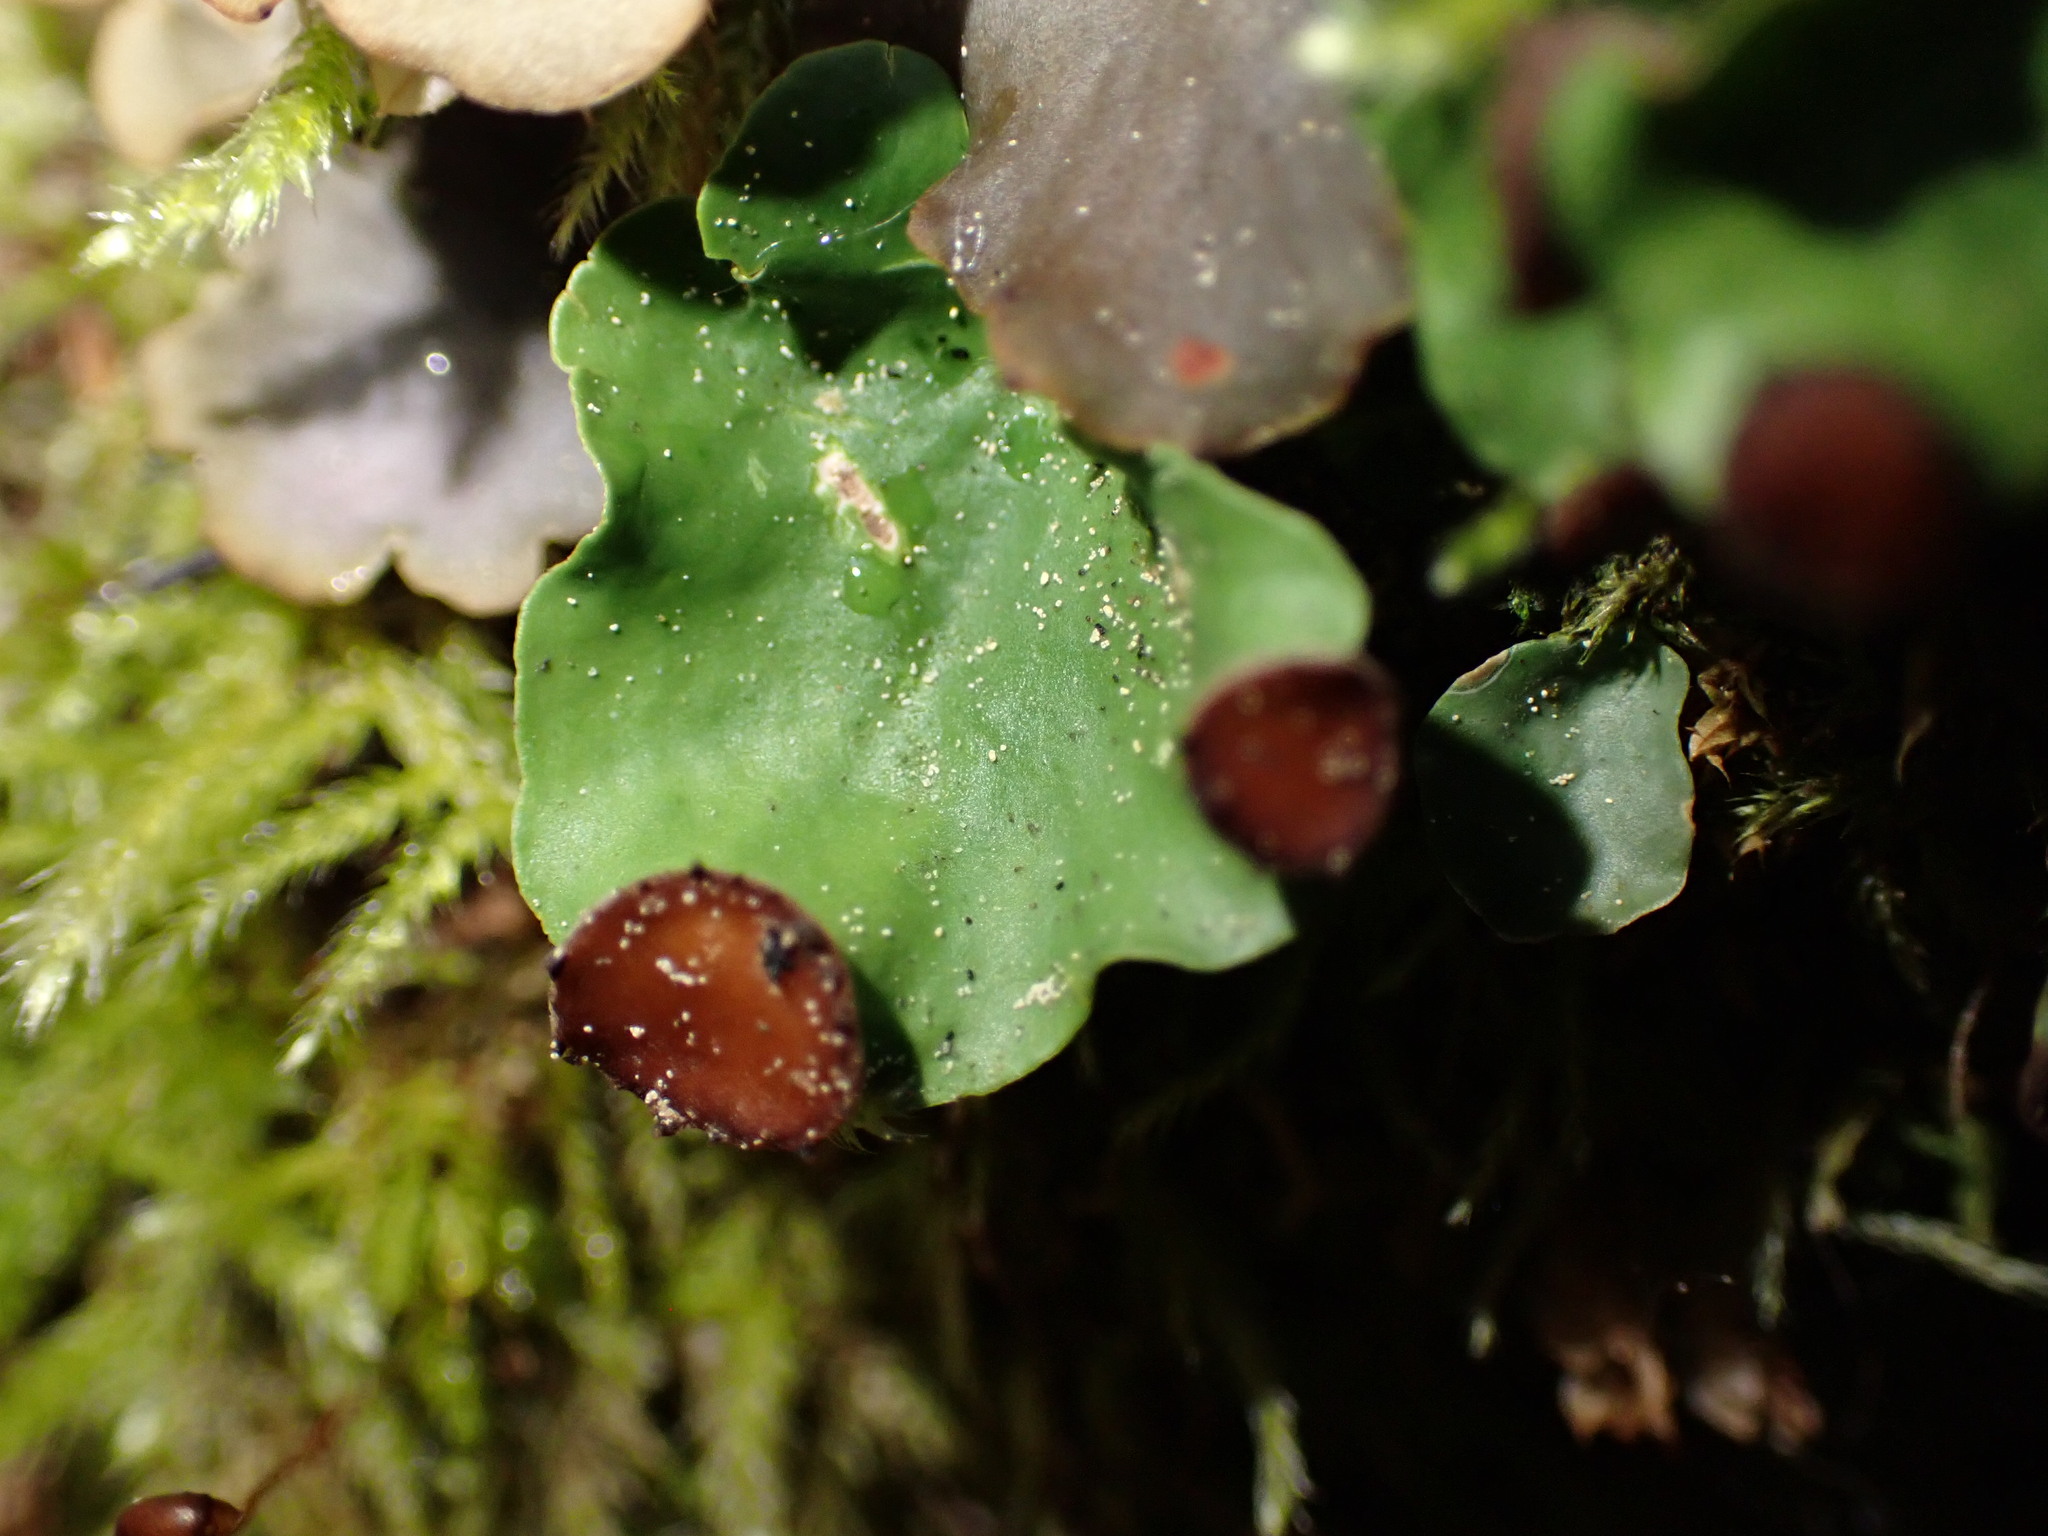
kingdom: Fungi
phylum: Ascomycota
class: Lecanoromycetes
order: Peltigerales
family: Peltigeraceae
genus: Peltigera
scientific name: Peltigera venosa
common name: Pixie gowns lichen
